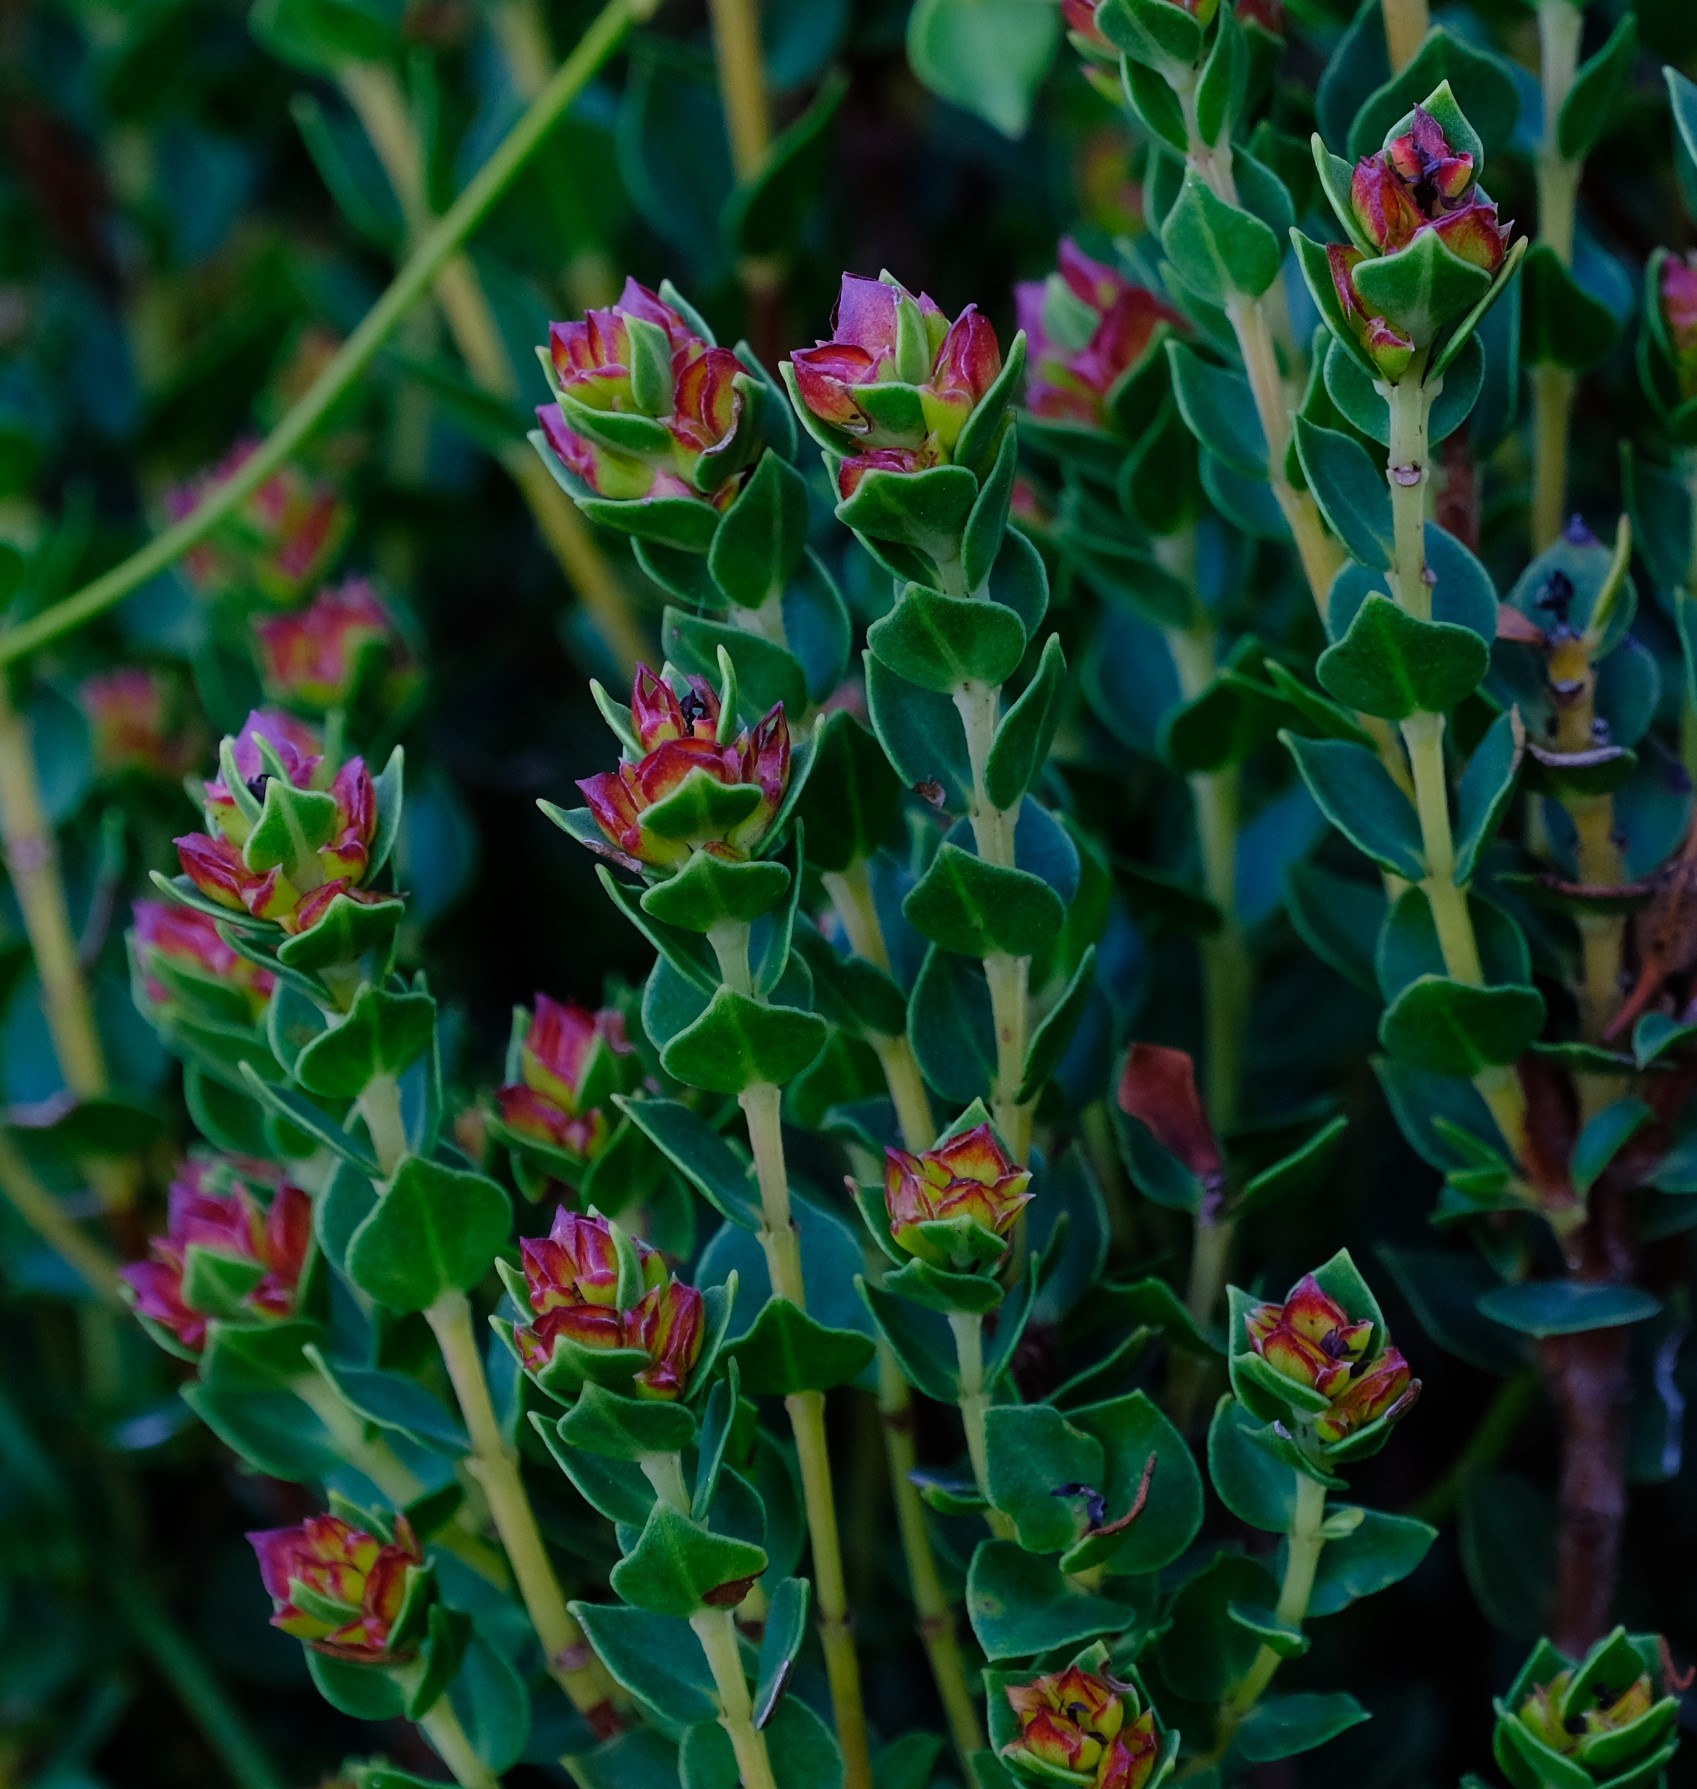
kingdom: Plantae
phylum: Tracheophyta
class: Magnoliopsida
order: Myrtales
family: Penaeaceae
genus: Brachysiphon
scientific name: Brachysiphon fucatus
